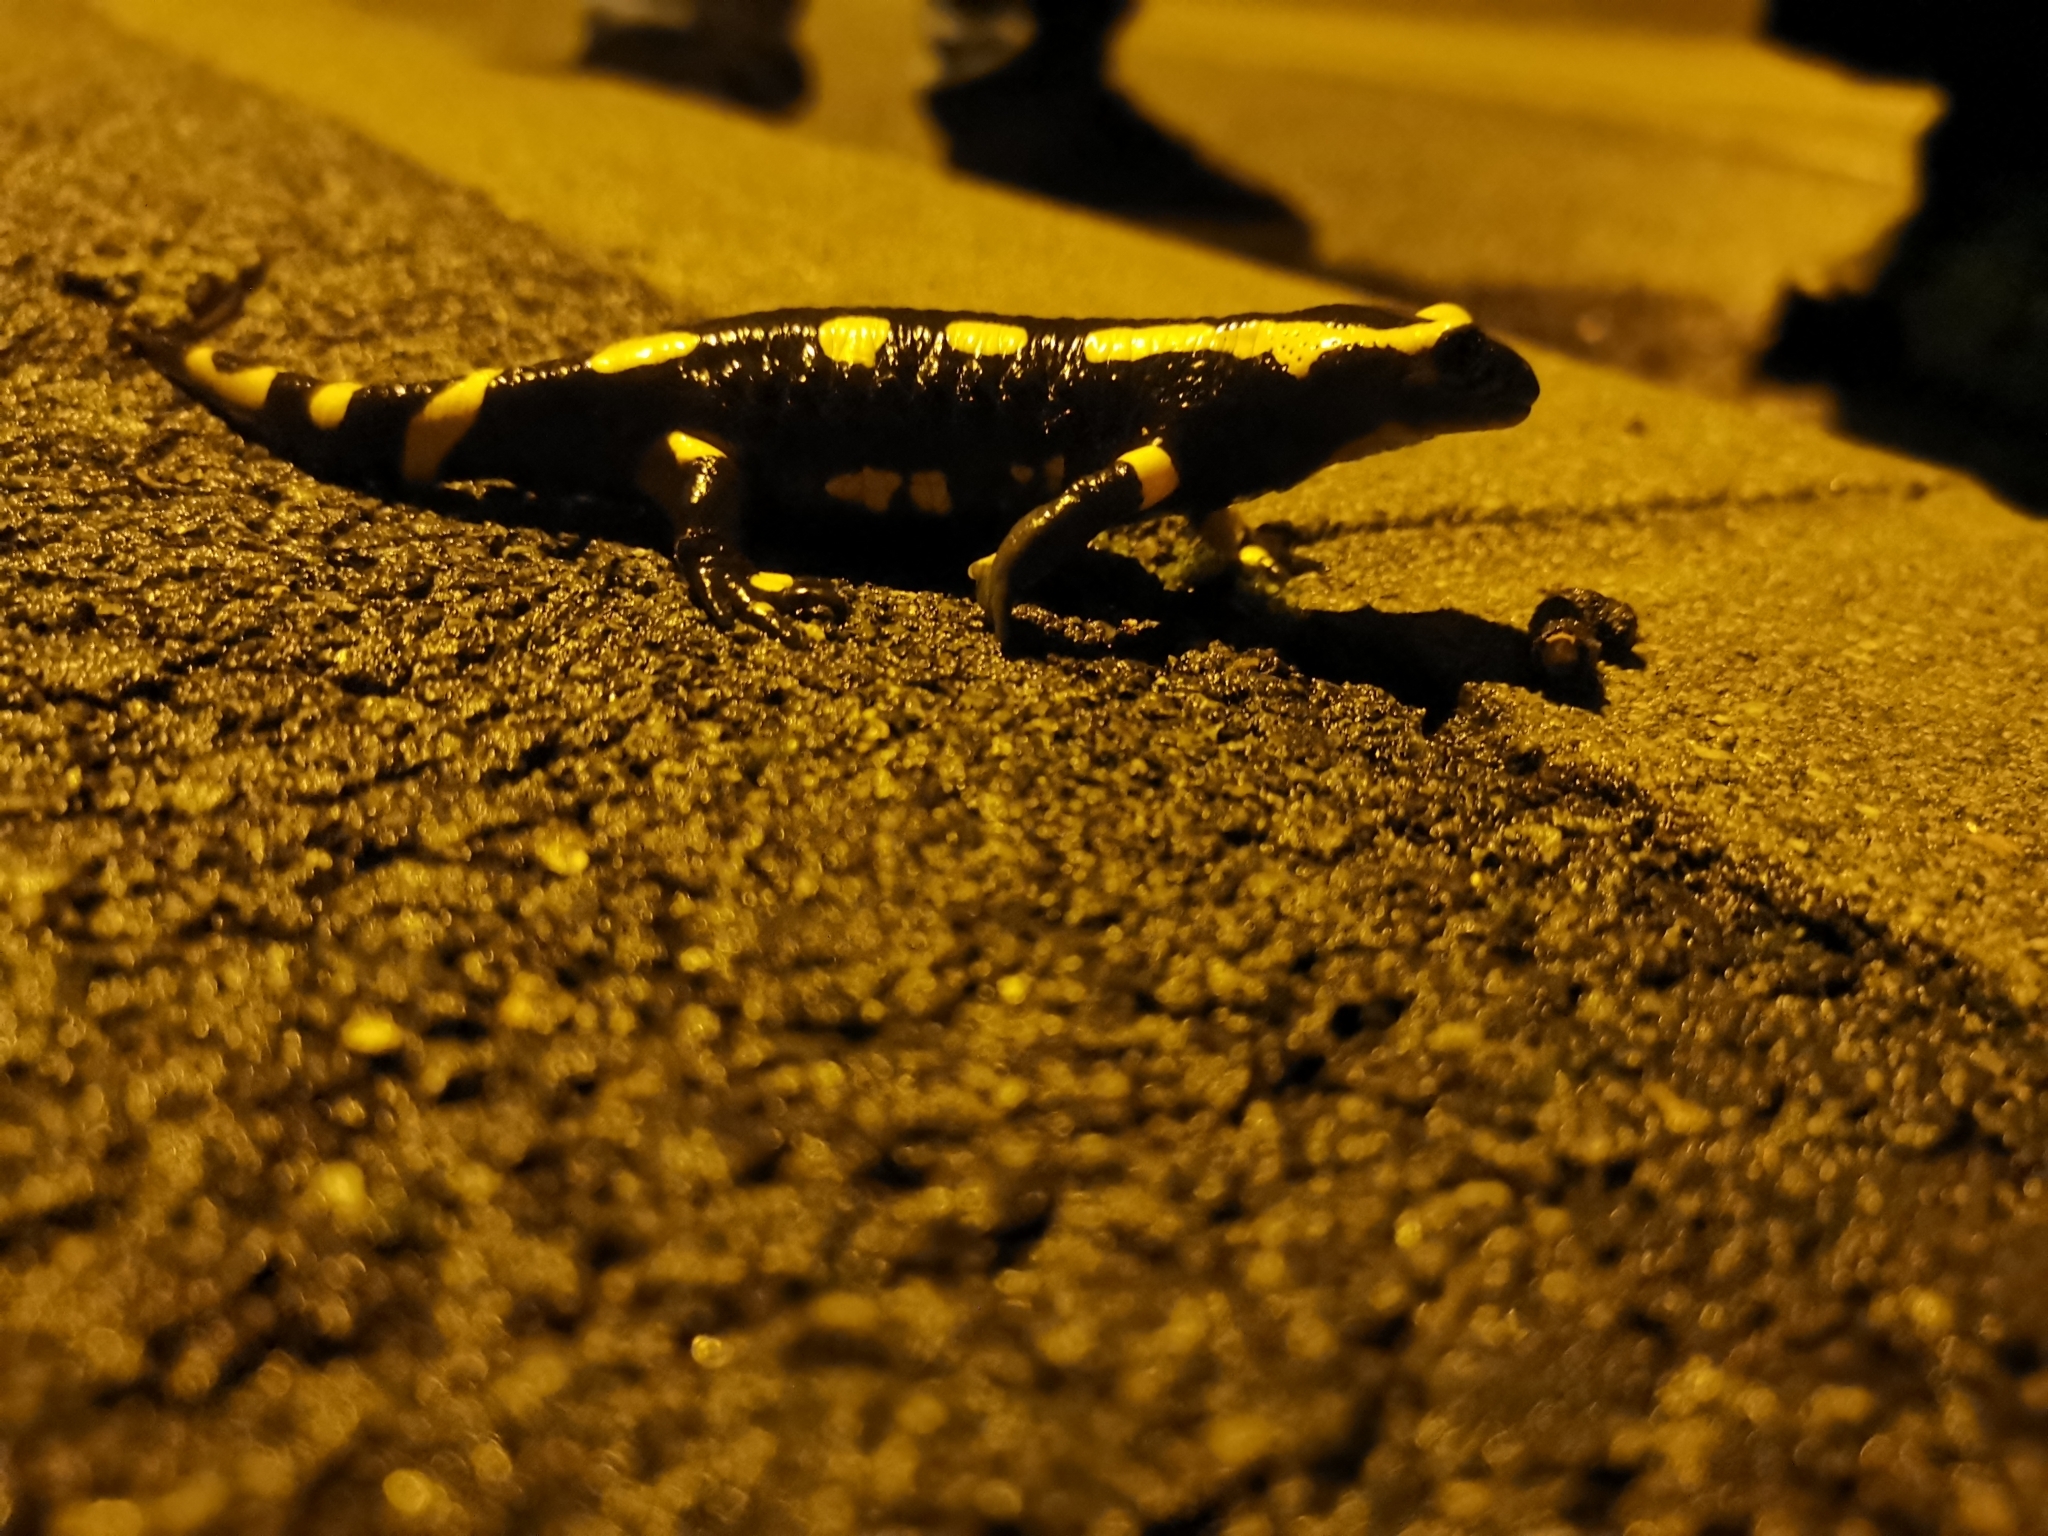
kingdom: Animalia
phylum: Chordata
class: Amphibia
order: Caudata
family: Salamandridae
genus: Salamandra
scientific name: Salamandra salamandra
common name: Fire salamander
